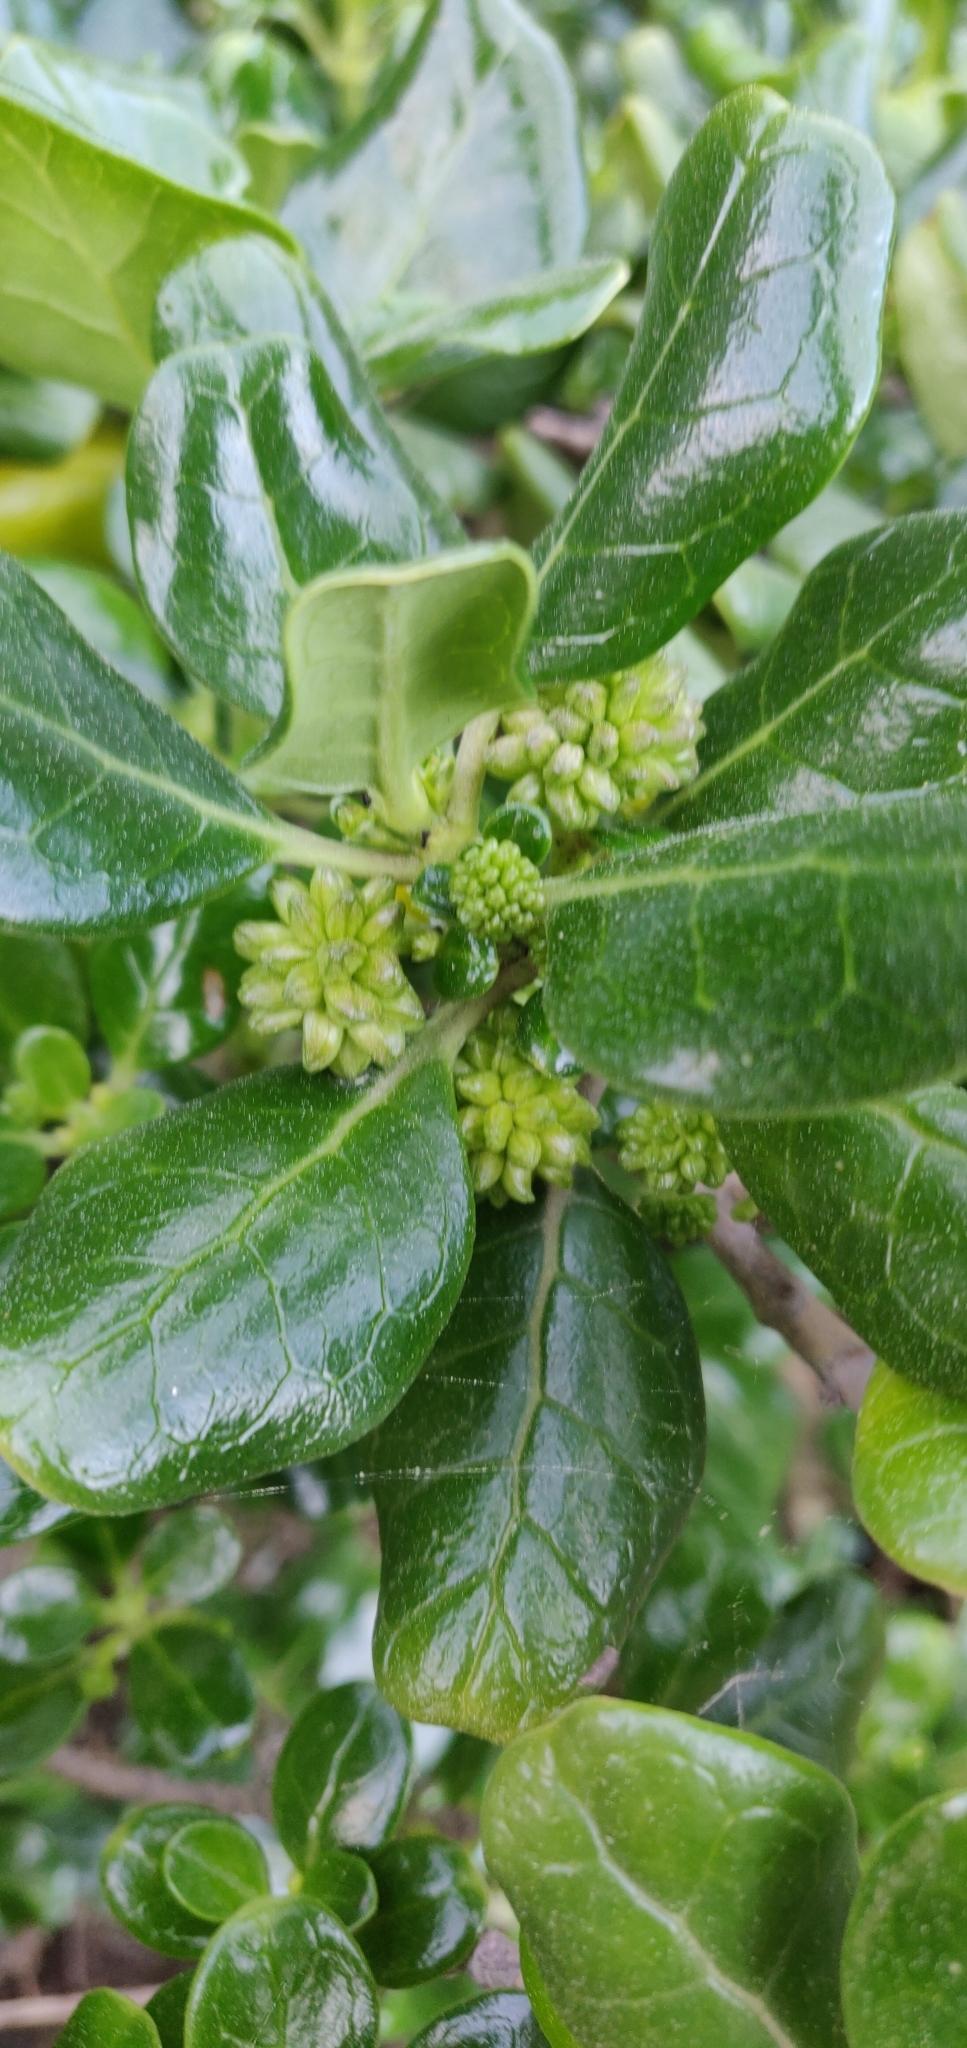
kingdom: Plantae
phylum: Tracheophyta
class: Magnoliopsida
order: Gentianales
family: Rubiaceae
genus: Coprosma
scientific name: Coprosma repens
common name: Tree bedstraw
